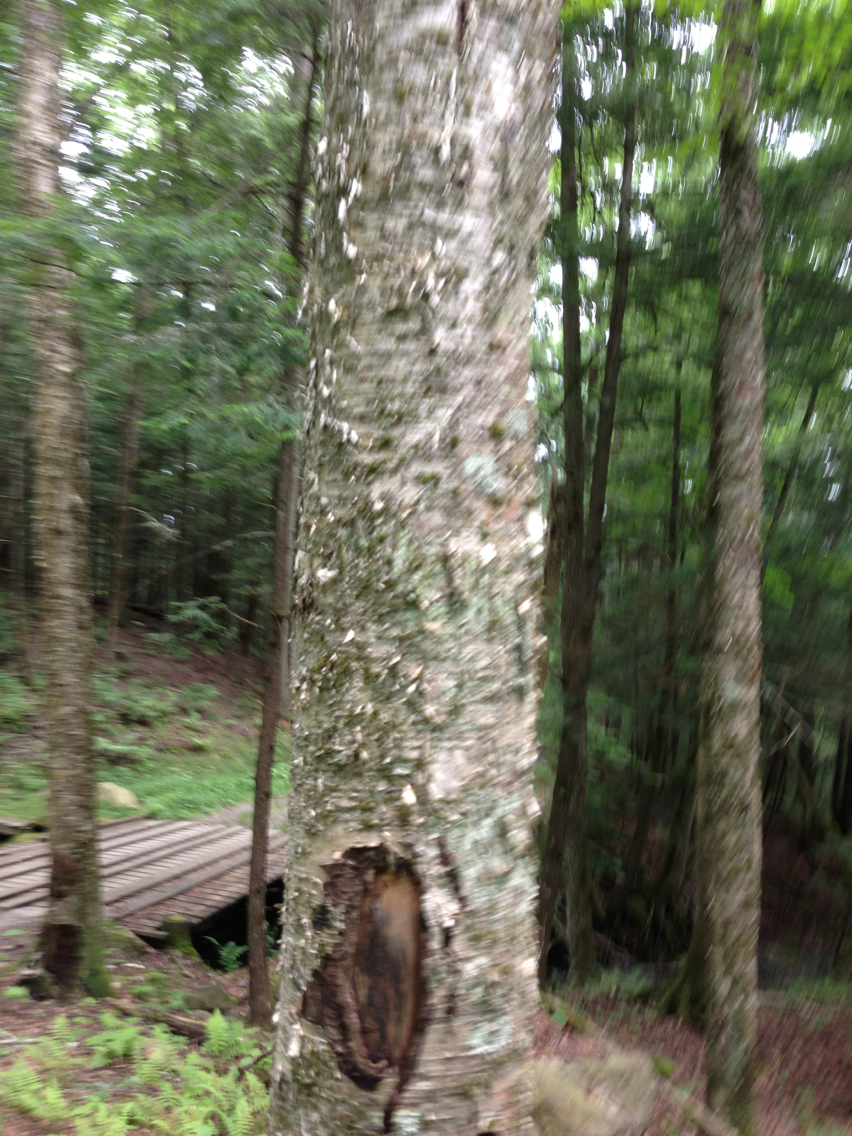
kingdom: Plantae
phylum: Tracheophyta
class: Magnoliopsida
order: Fagales
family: Betulaceae
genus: Betula
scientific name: Betula alleghaniensis
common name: Yellow birch
